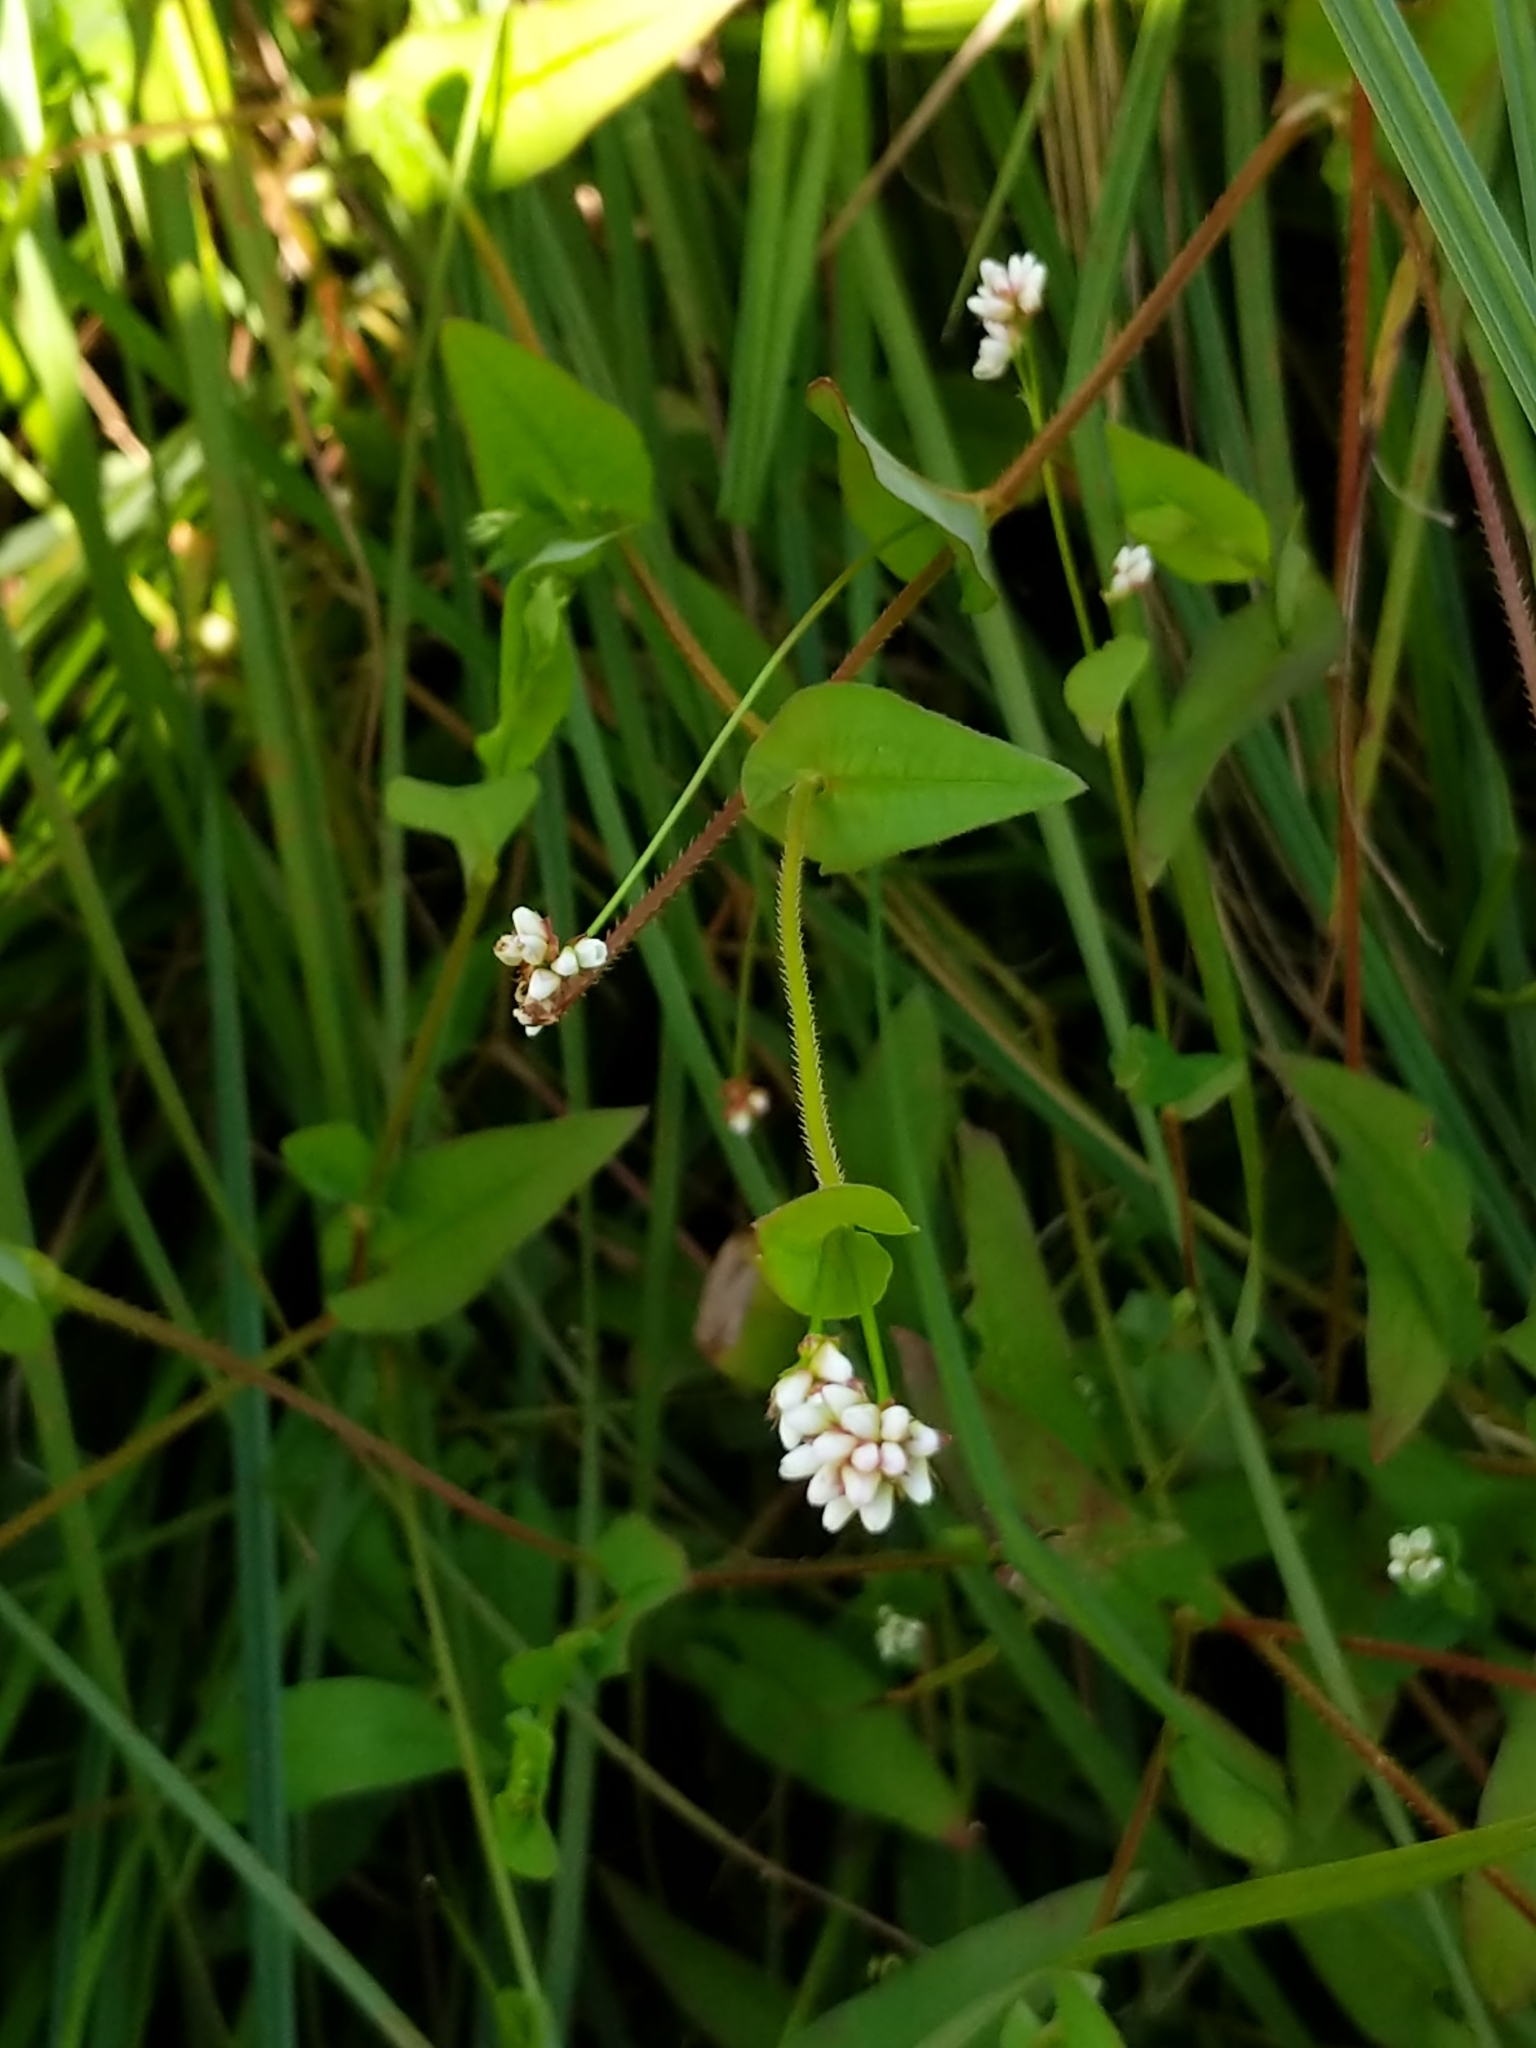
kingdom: Plantae
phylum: Tracheophyta
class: Magnoliopsida
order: Caryophyllales
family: Polygonaceae
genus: Persicaria
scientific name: Persicaria sagittata
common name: American tearthumb
